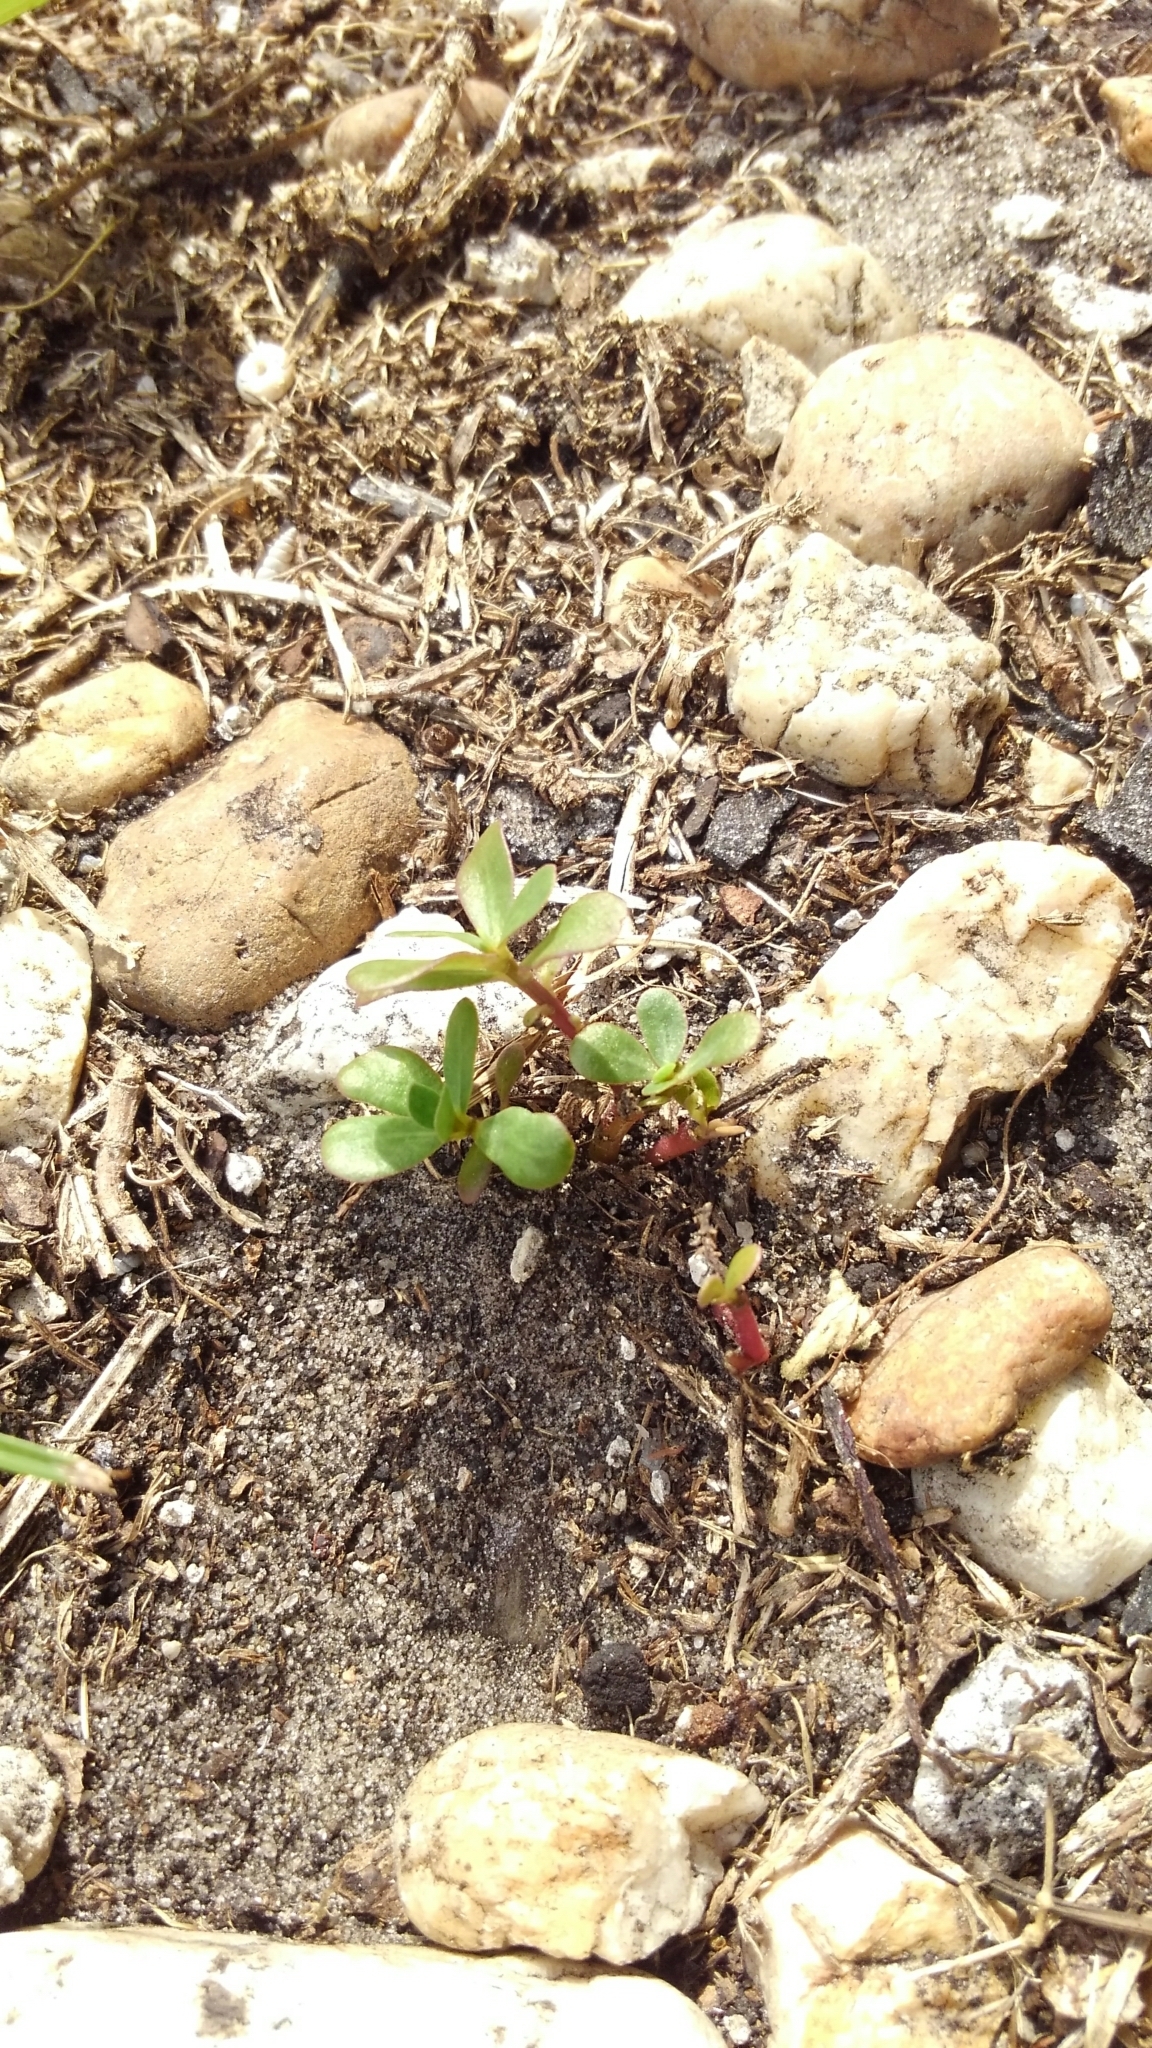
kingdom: Plantae
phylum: Tracheophyta
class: Magnoliopsida
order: Caryophyllales
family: Portulacaceae
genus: Portulaca
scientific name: Portulaca oleracea
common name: Common purslane
